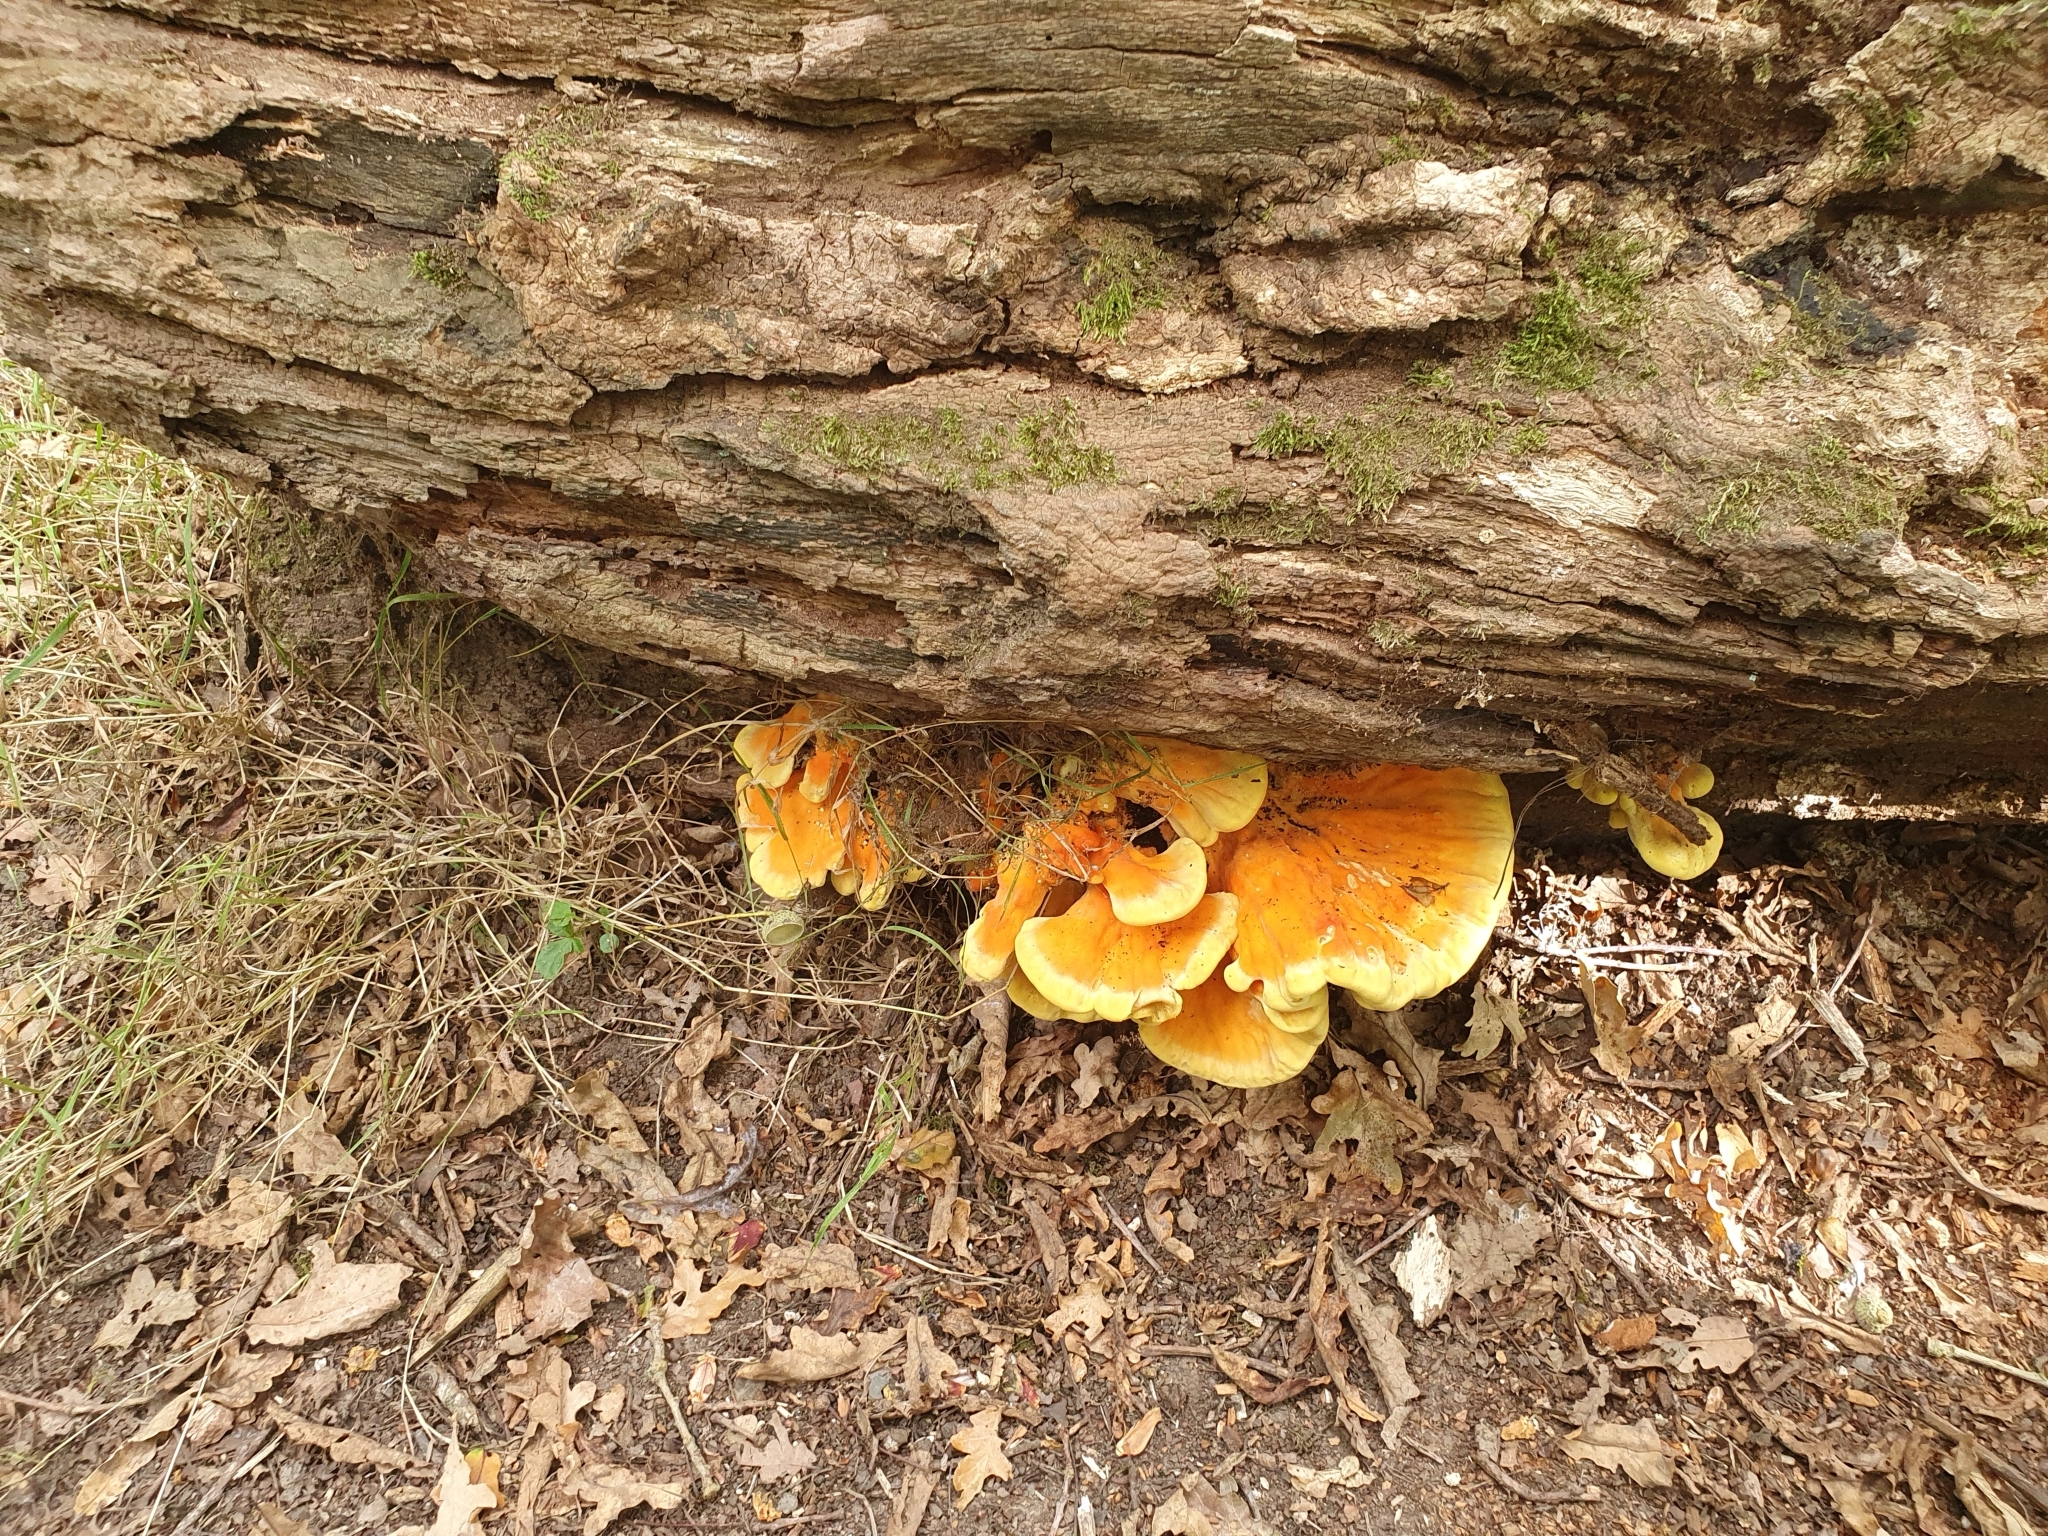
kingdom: Fungi
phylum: Basidiomycota
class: Agaricomycetes
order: Polyporales
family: Laetiporaceae
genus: Laetiporus
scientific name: Laetiporus sulphureus
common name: Chicken of the woods
